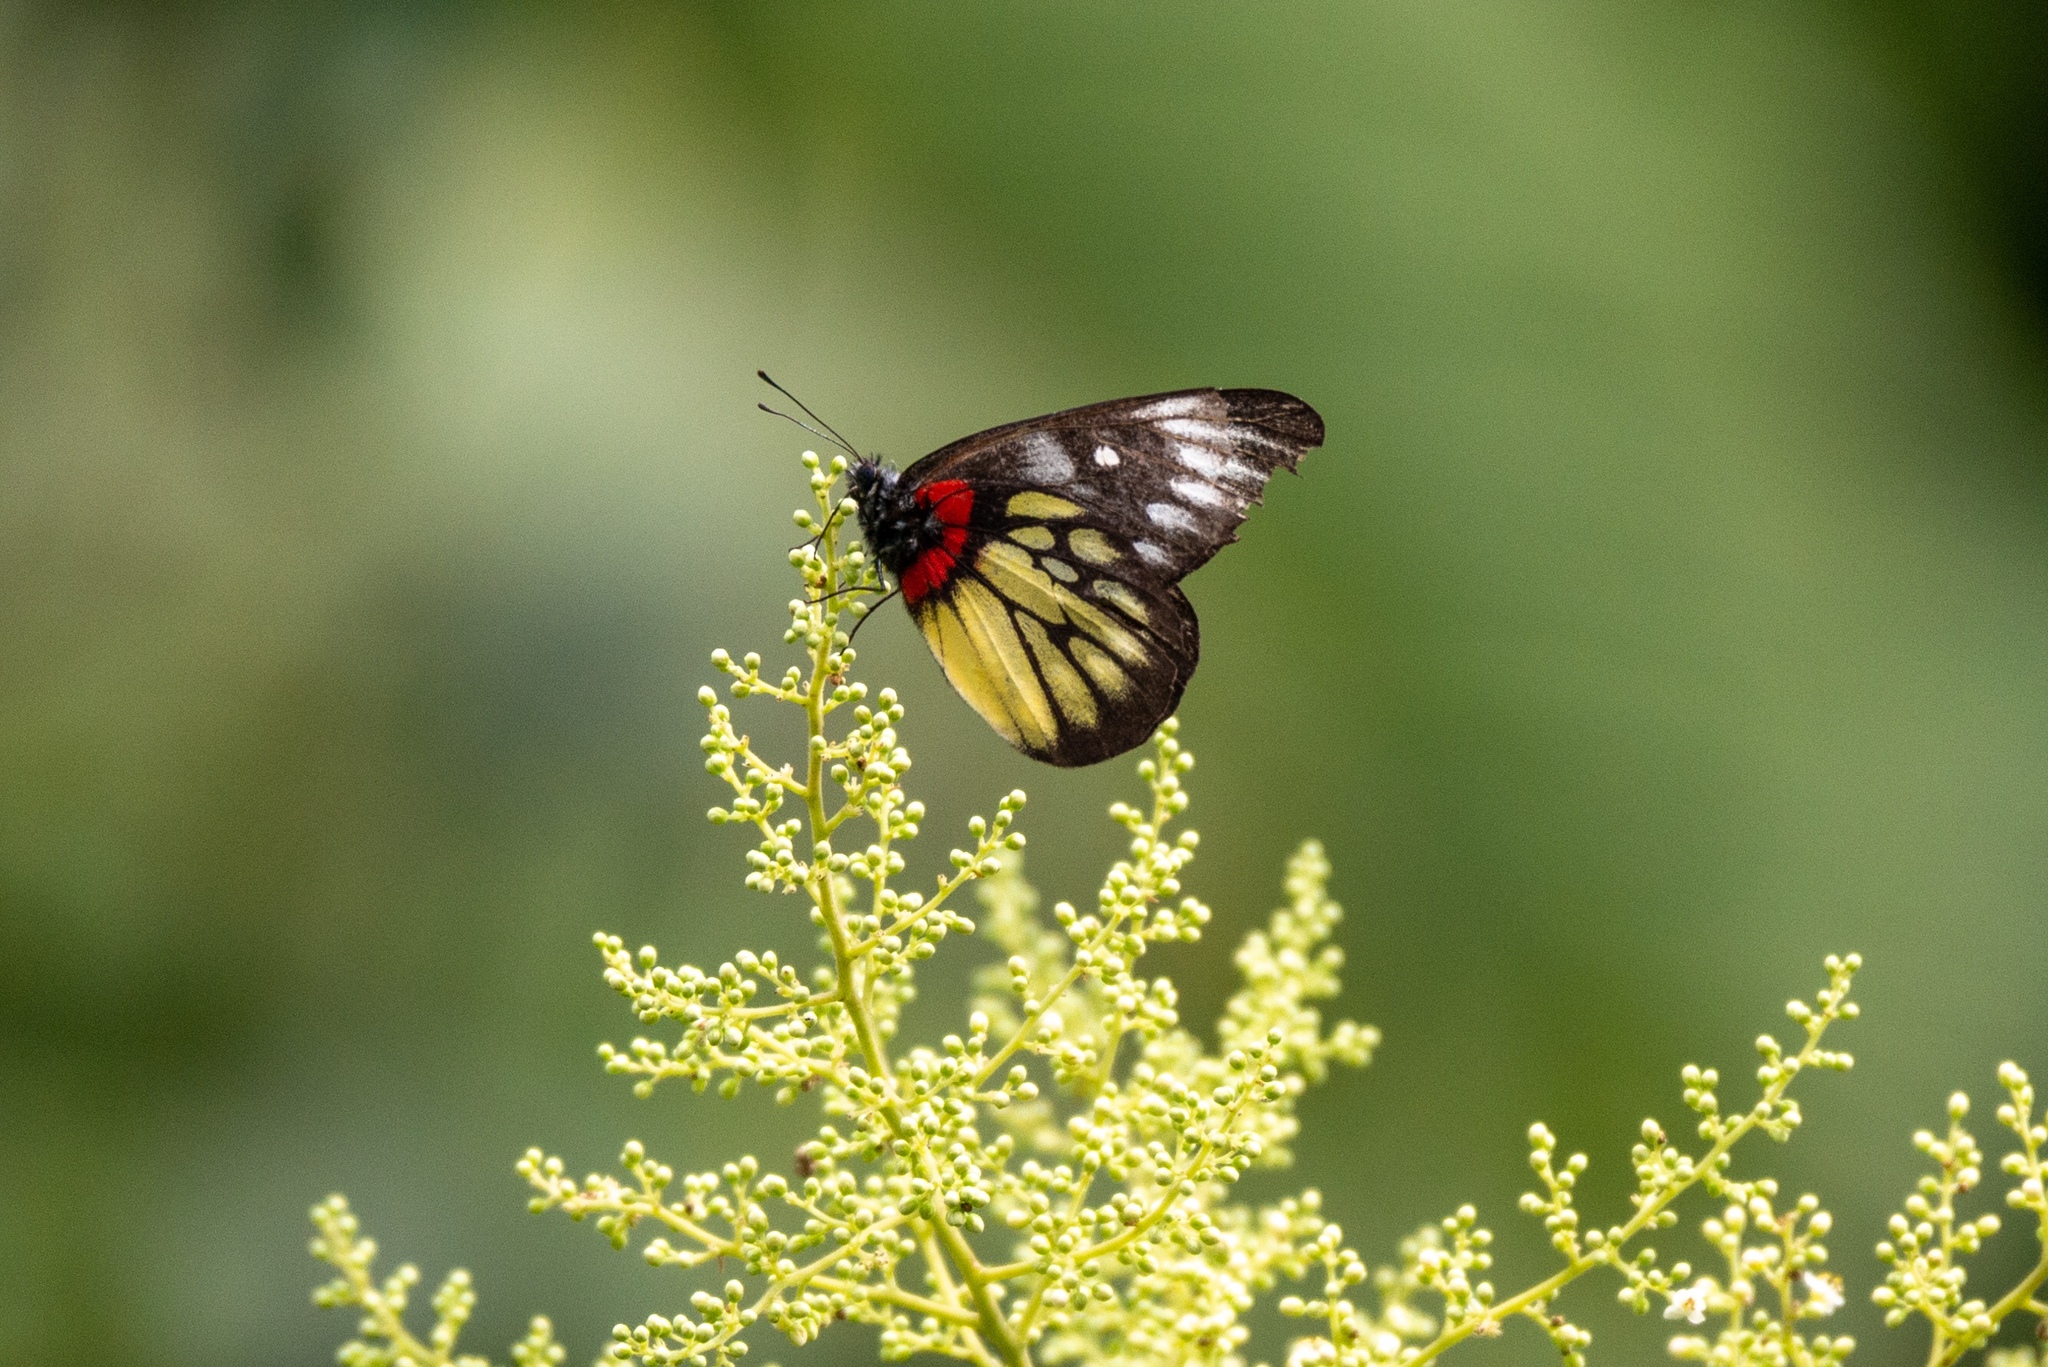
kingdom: Animalia
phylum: Arthropoda
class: Insecta
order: Lepidoptera
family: Pieridae
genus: Delias
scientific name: Delias pasithoe
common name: Red-base jezebel
